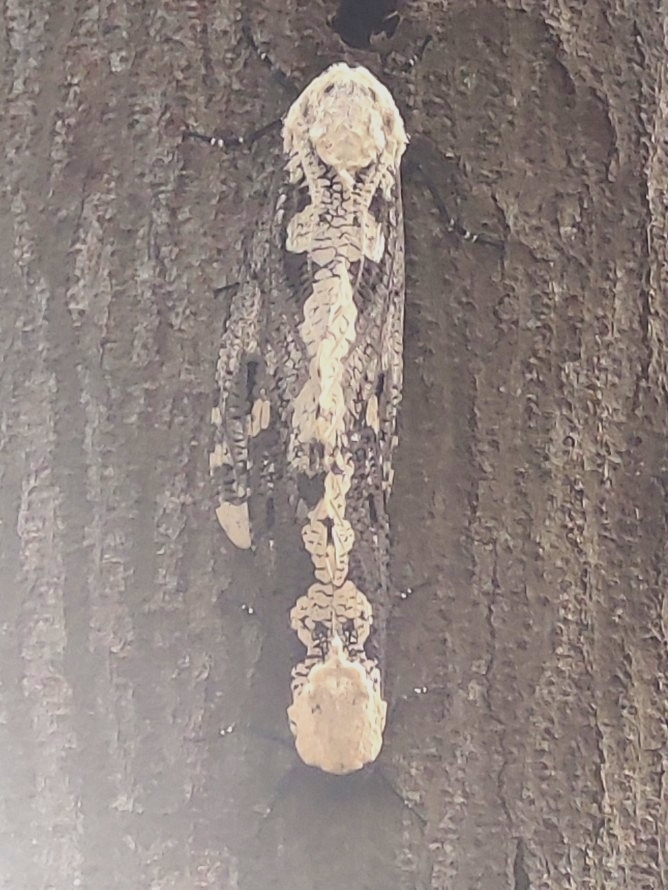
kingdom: Animalia
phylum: Arthropoda
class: Insecta
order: Lepidoptera
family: Cossidae
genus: Xyleutes
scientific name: Xyleutes persona
